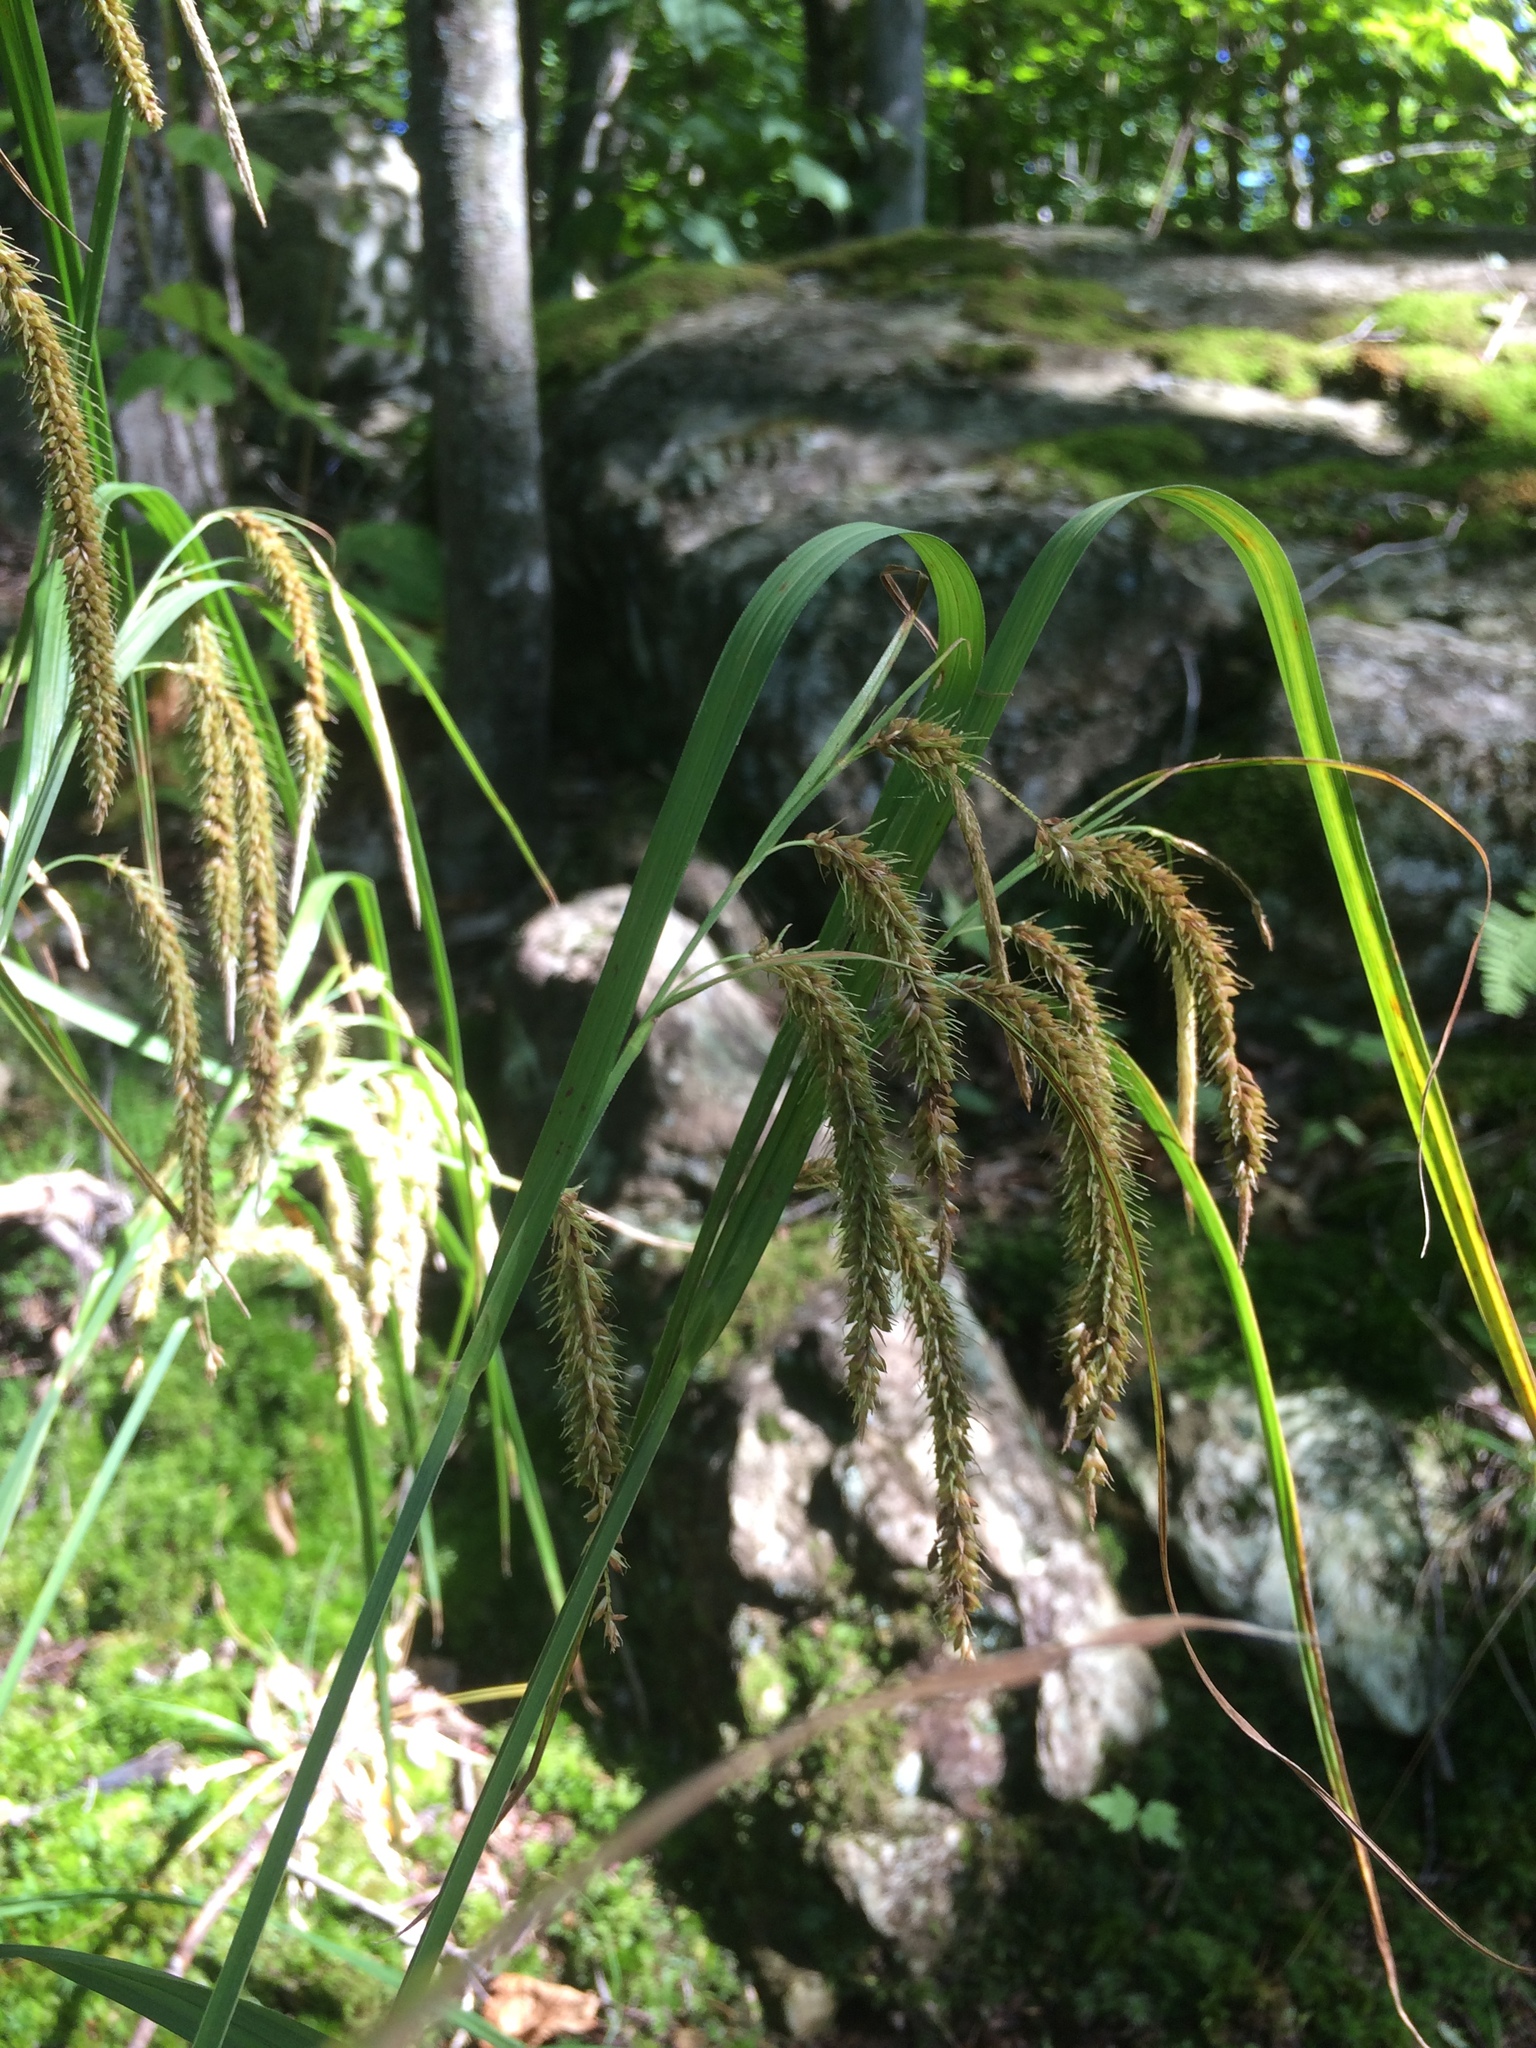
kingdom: Plantae
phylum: Tracheophyta
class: Liliopsida
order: Poales
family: Cyperaceae
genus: Carex
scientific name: Carex gynandra
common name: Nodding sedge
